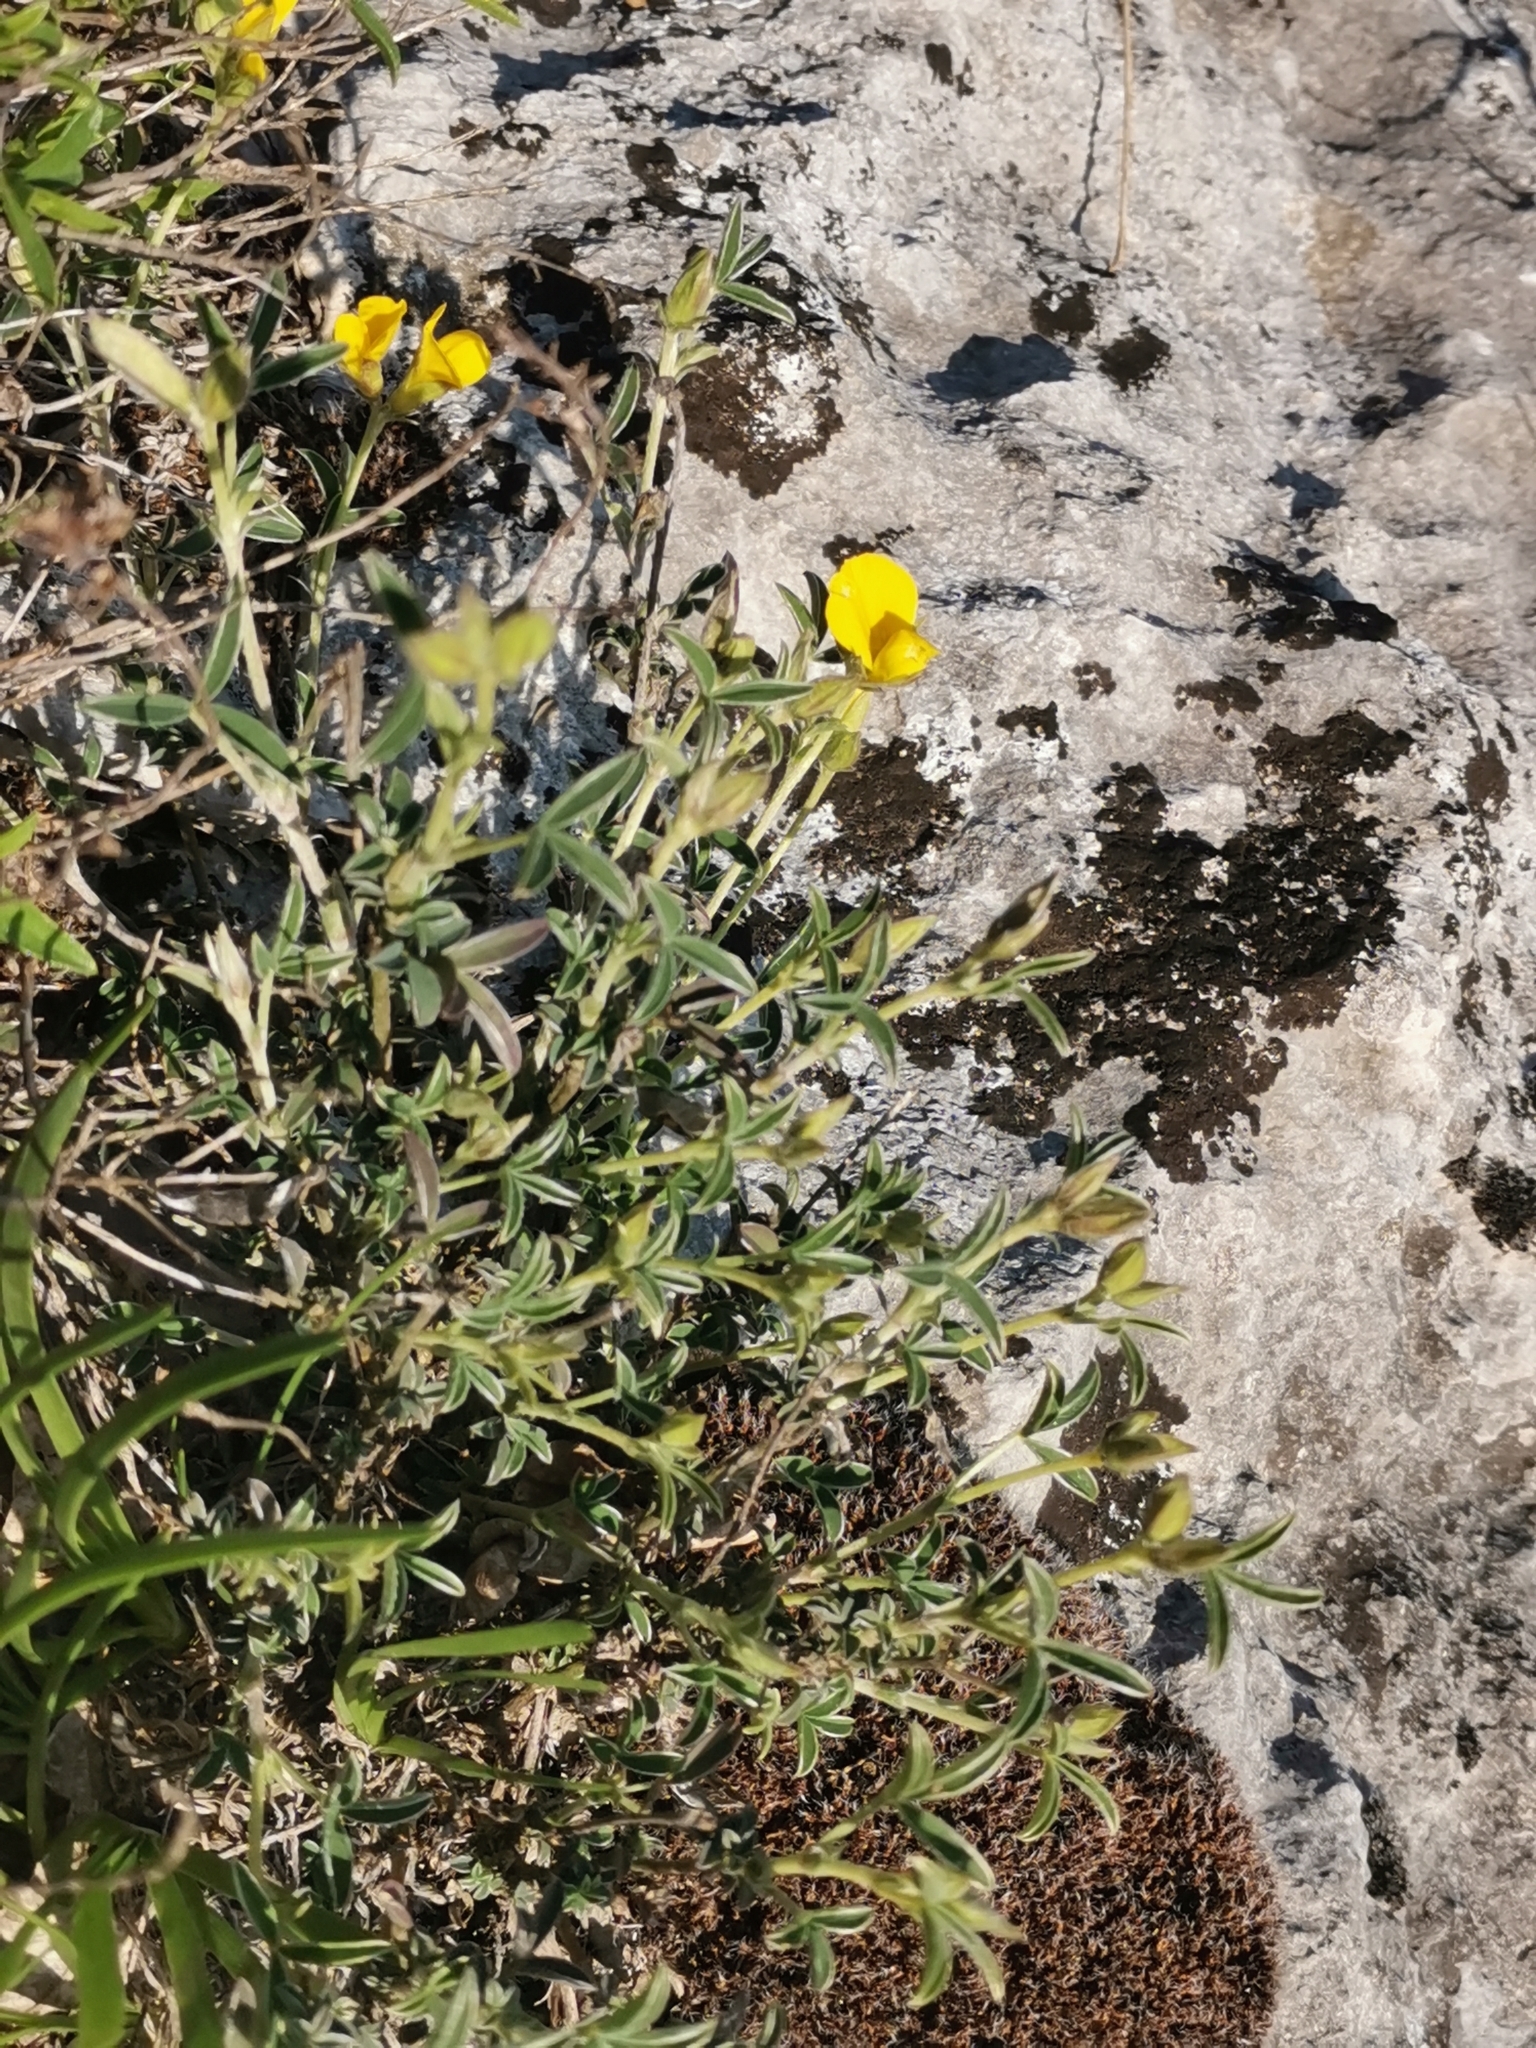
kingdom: Plantae
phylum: Tracheophyta
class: Magnoliopsida
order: Fabales
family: Fabaceae
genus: Argyrolobium
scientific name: Argyrolobium zanonii
